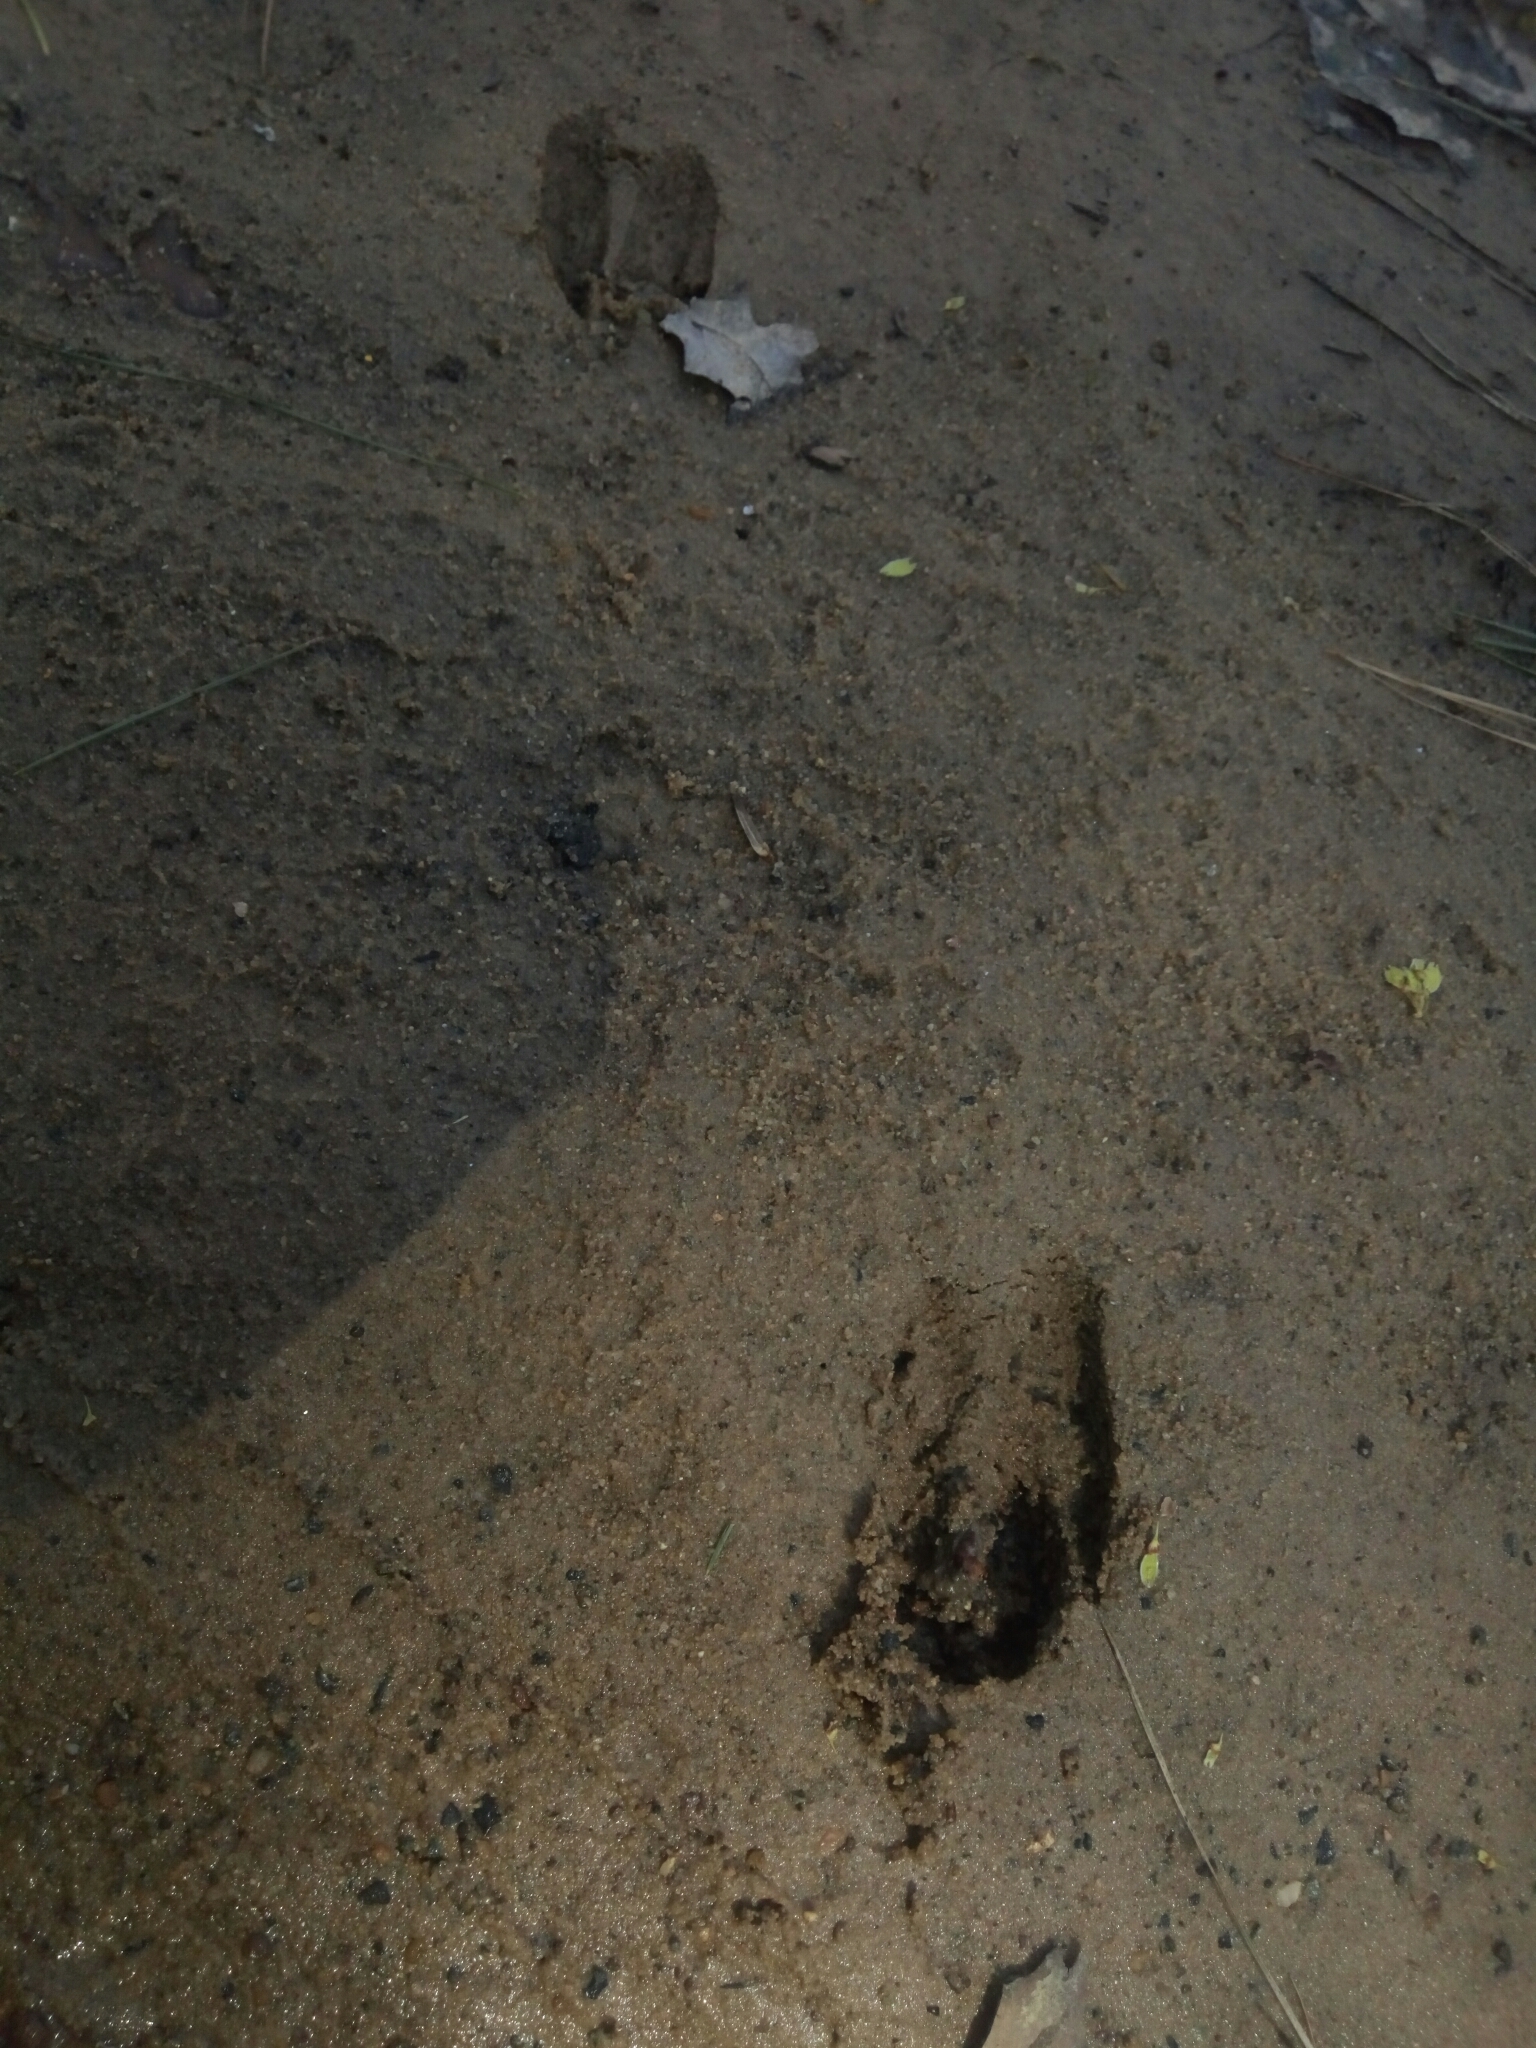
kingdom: Animalia
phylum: Chordata
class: Mammalia
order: Artiodactyla
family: Cervidae
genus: Odocoileus
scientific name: Odocoileus virginianus
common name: White-tailed deer
